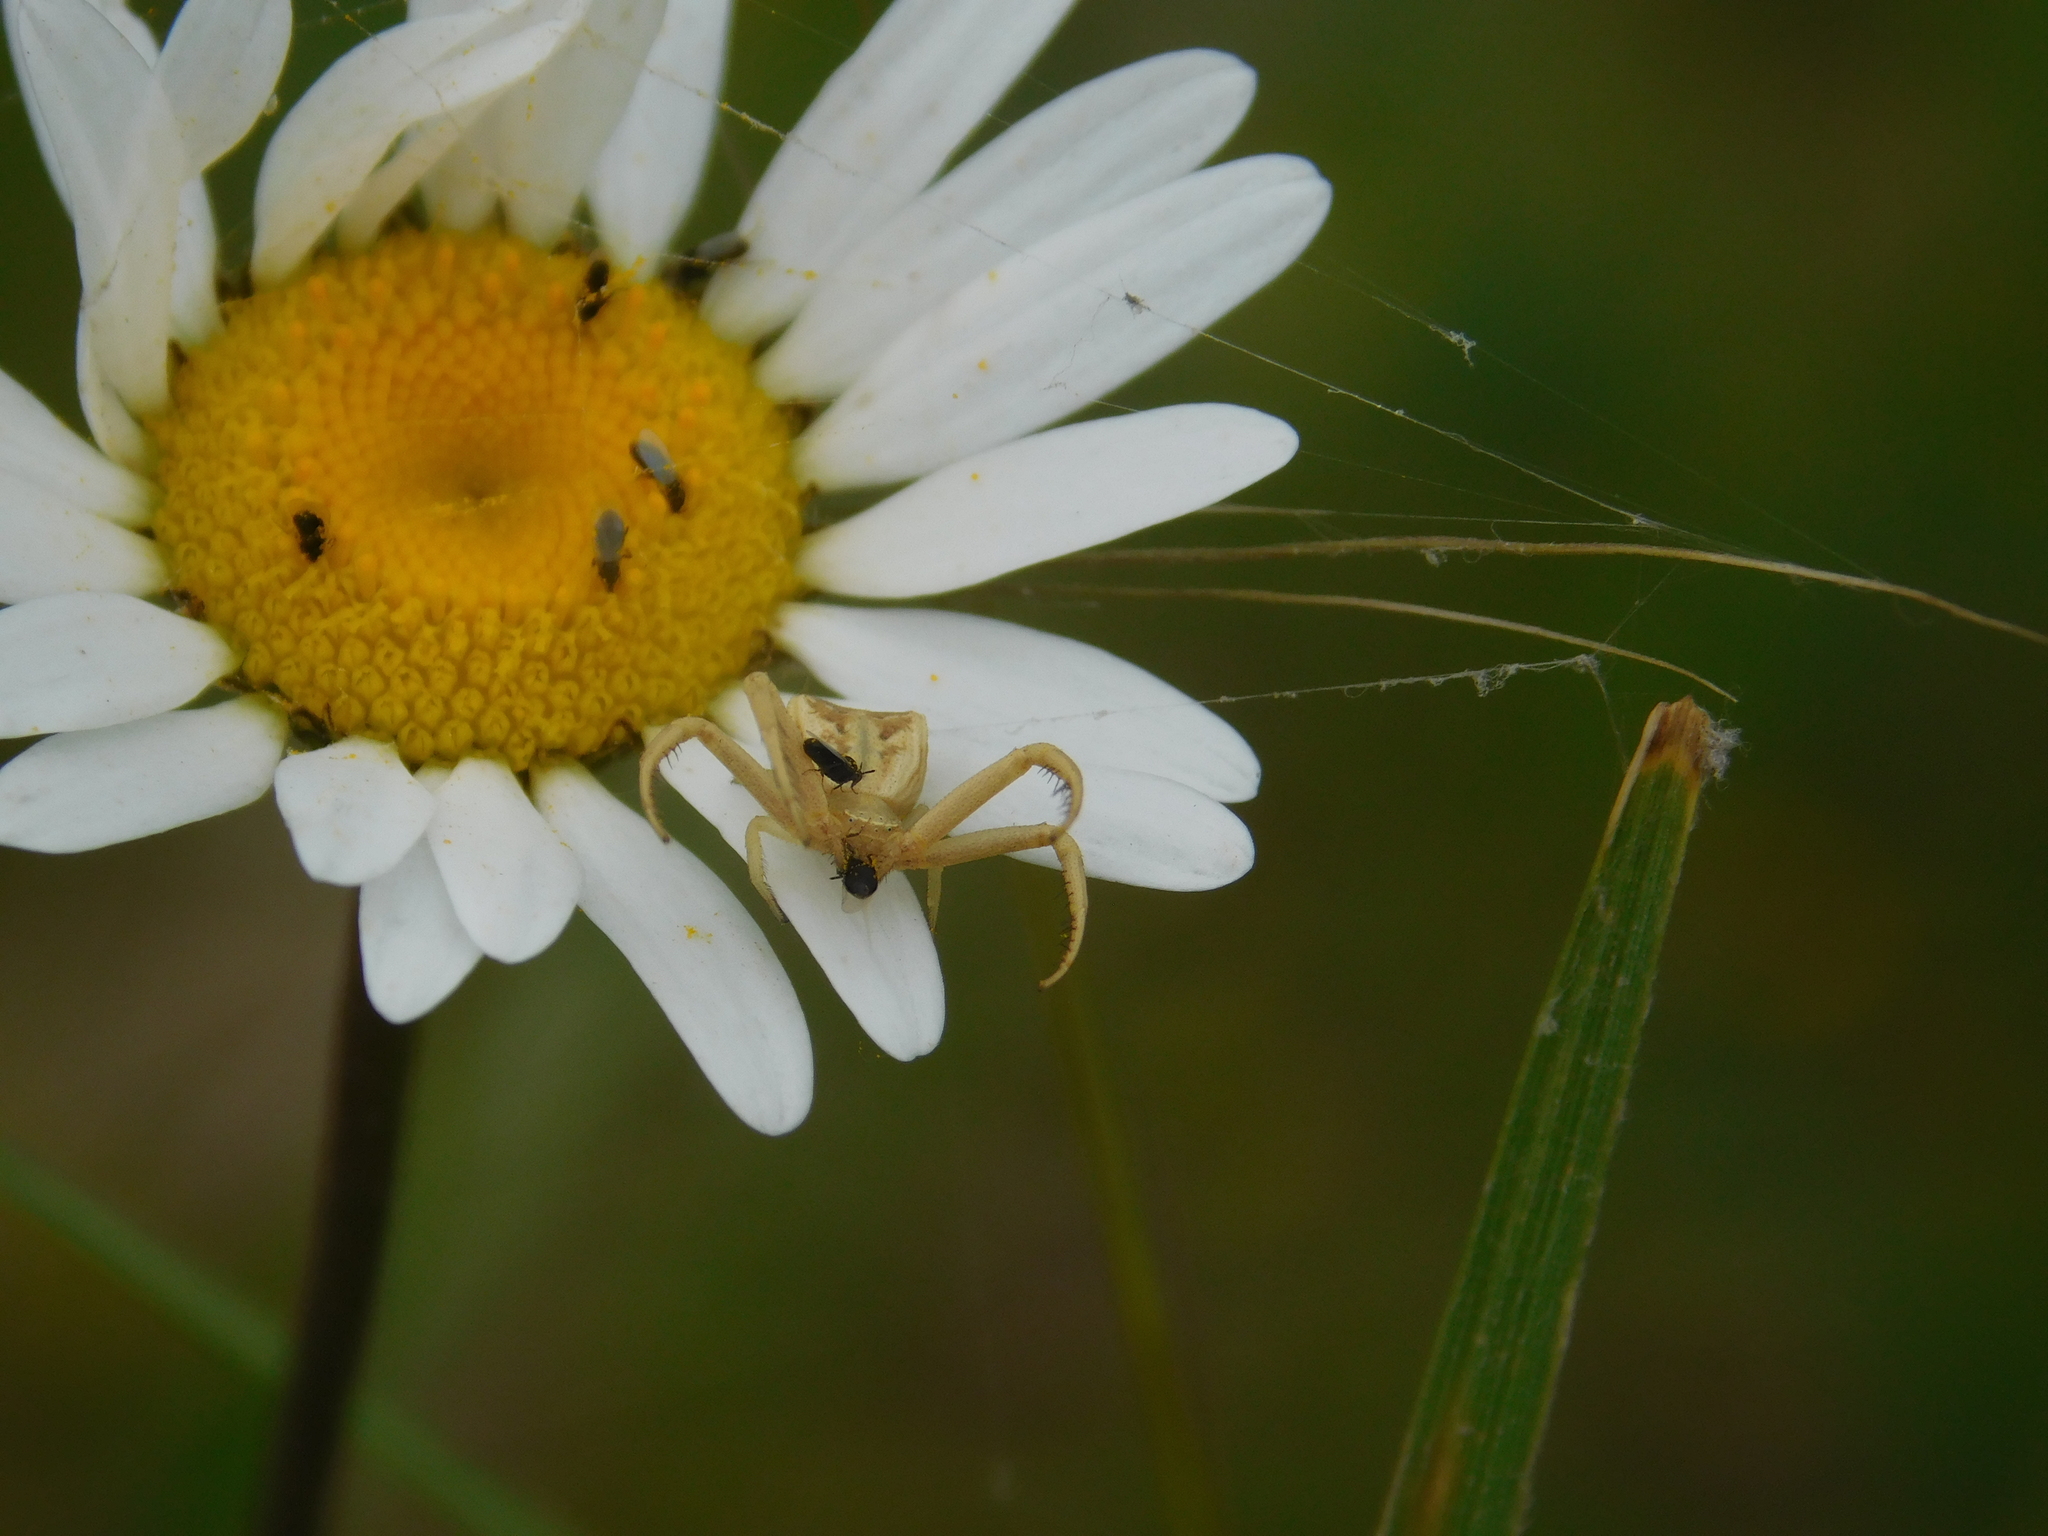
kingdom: Animalia
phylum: Arthropoda
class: Arachnida
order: Araneae
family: Thomisidae
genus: Uraarachne
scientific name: Uraarachne runcinioides
